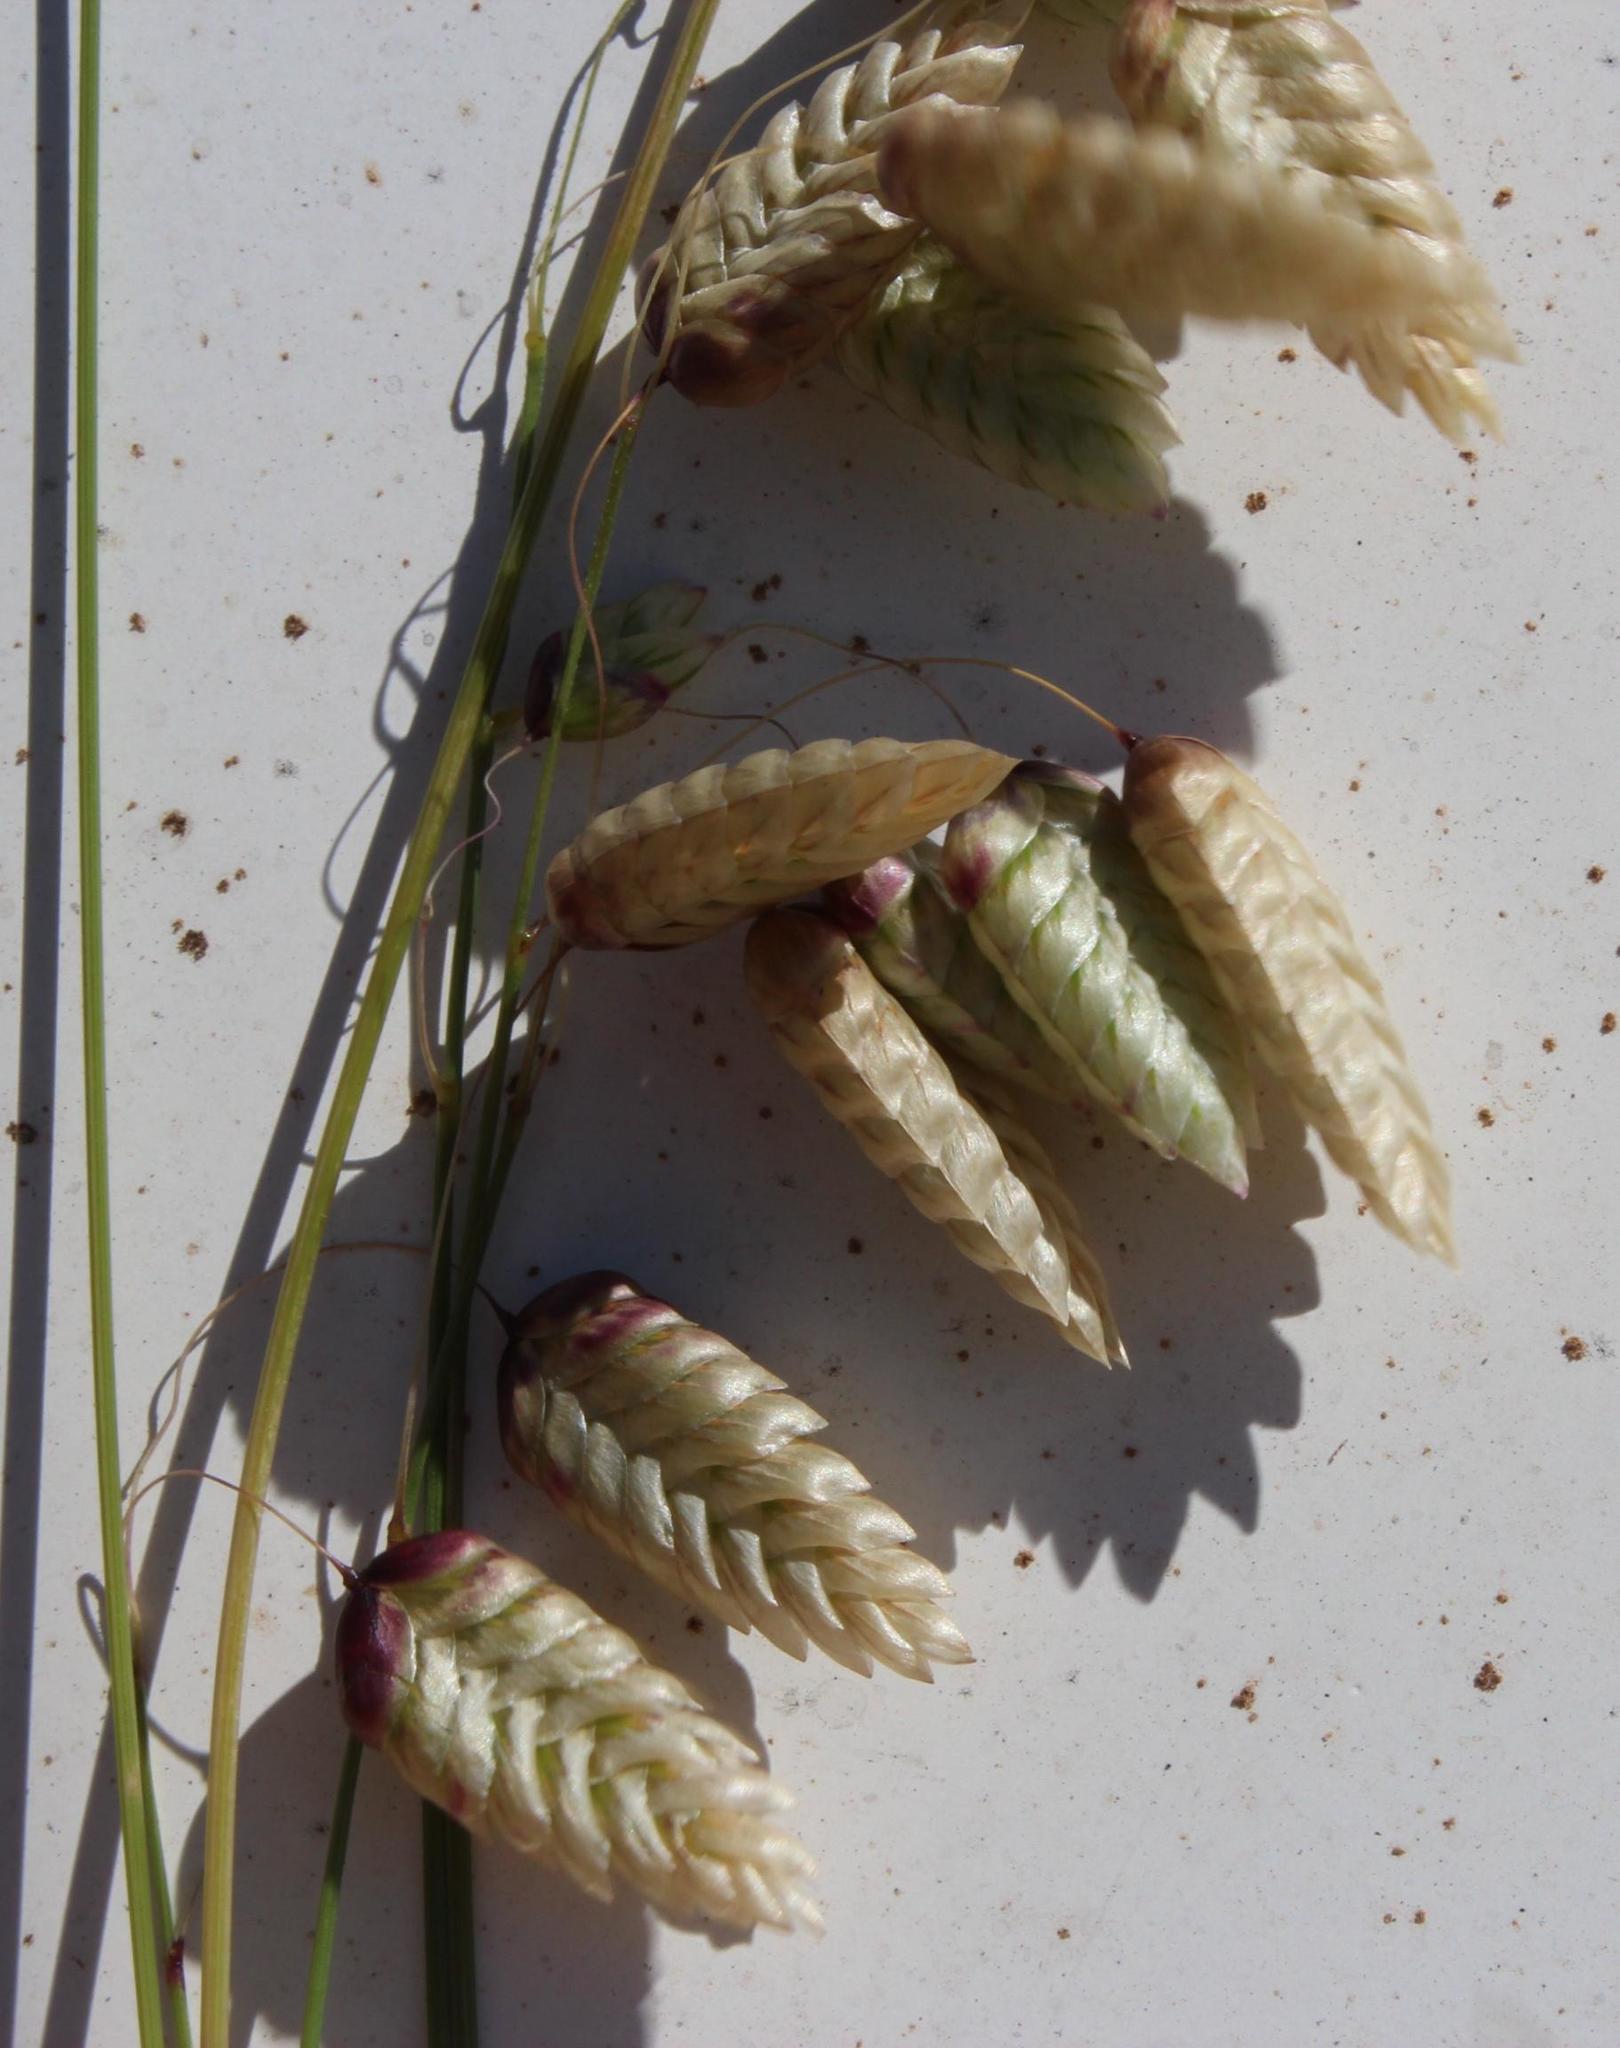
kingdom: Plantae
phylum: Tracheophyta
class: Liliopsida
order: Poales
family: Poaceae
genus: Briza
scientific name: Briza maxima
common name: Big quakinggrass
